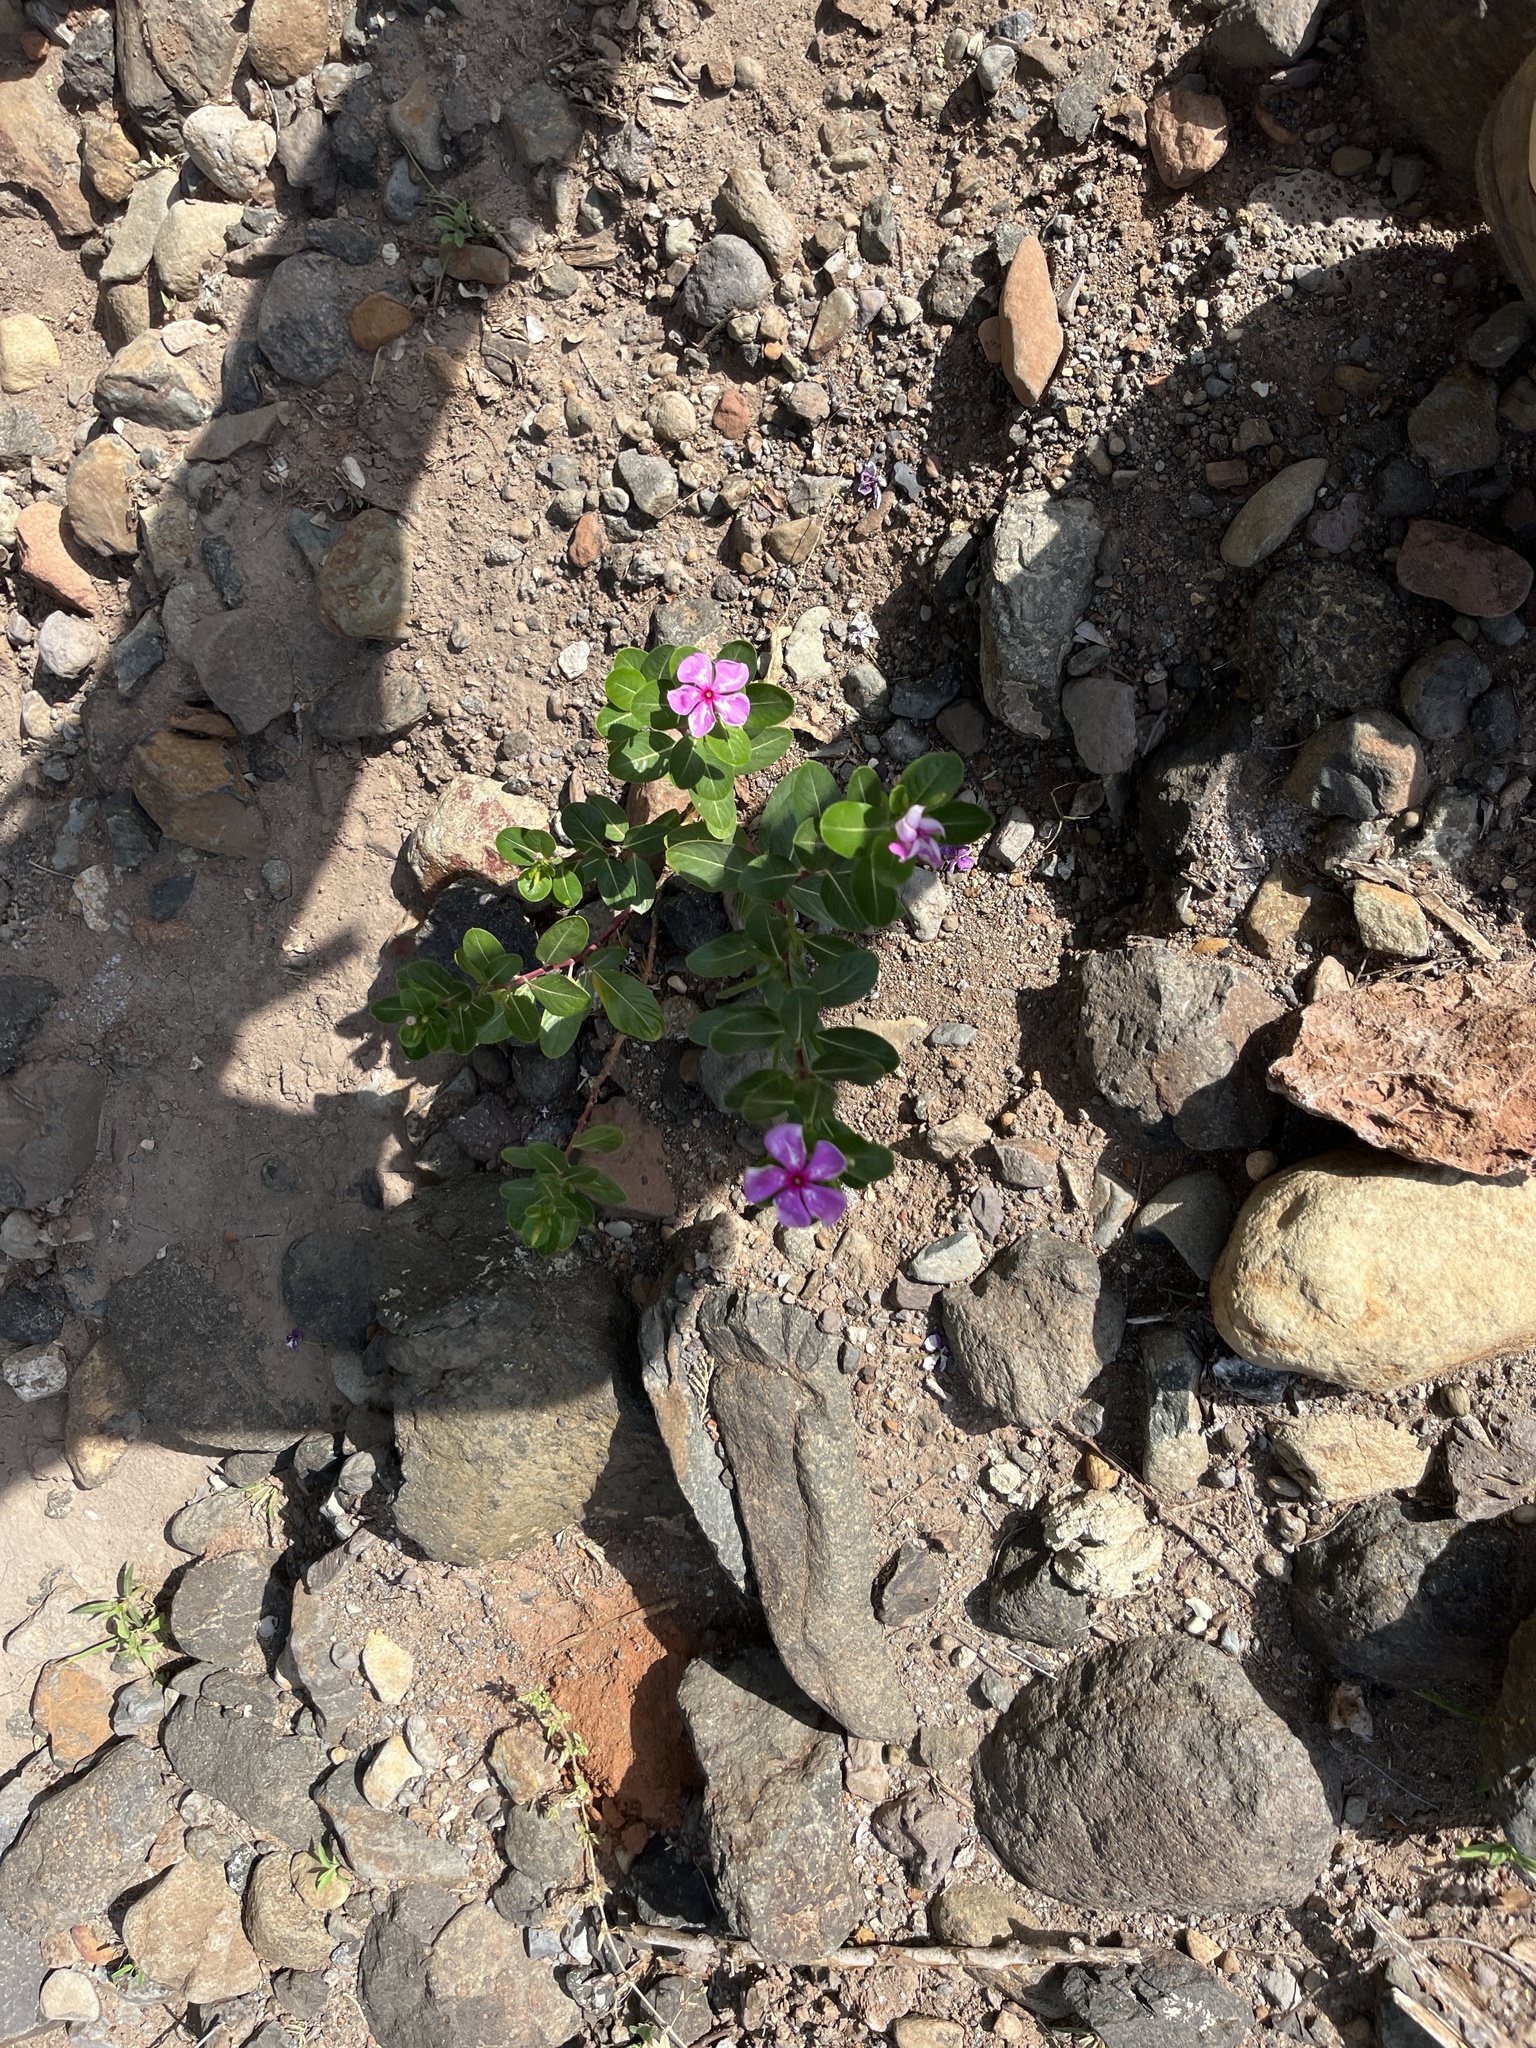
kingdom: Plantae
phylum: Tracheophyta
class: Magnoliopsida
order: Gentianales
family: Apocynaceae
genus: Catharanthus
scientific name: Catharanthus roseus
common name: Madagascar periwinkle
